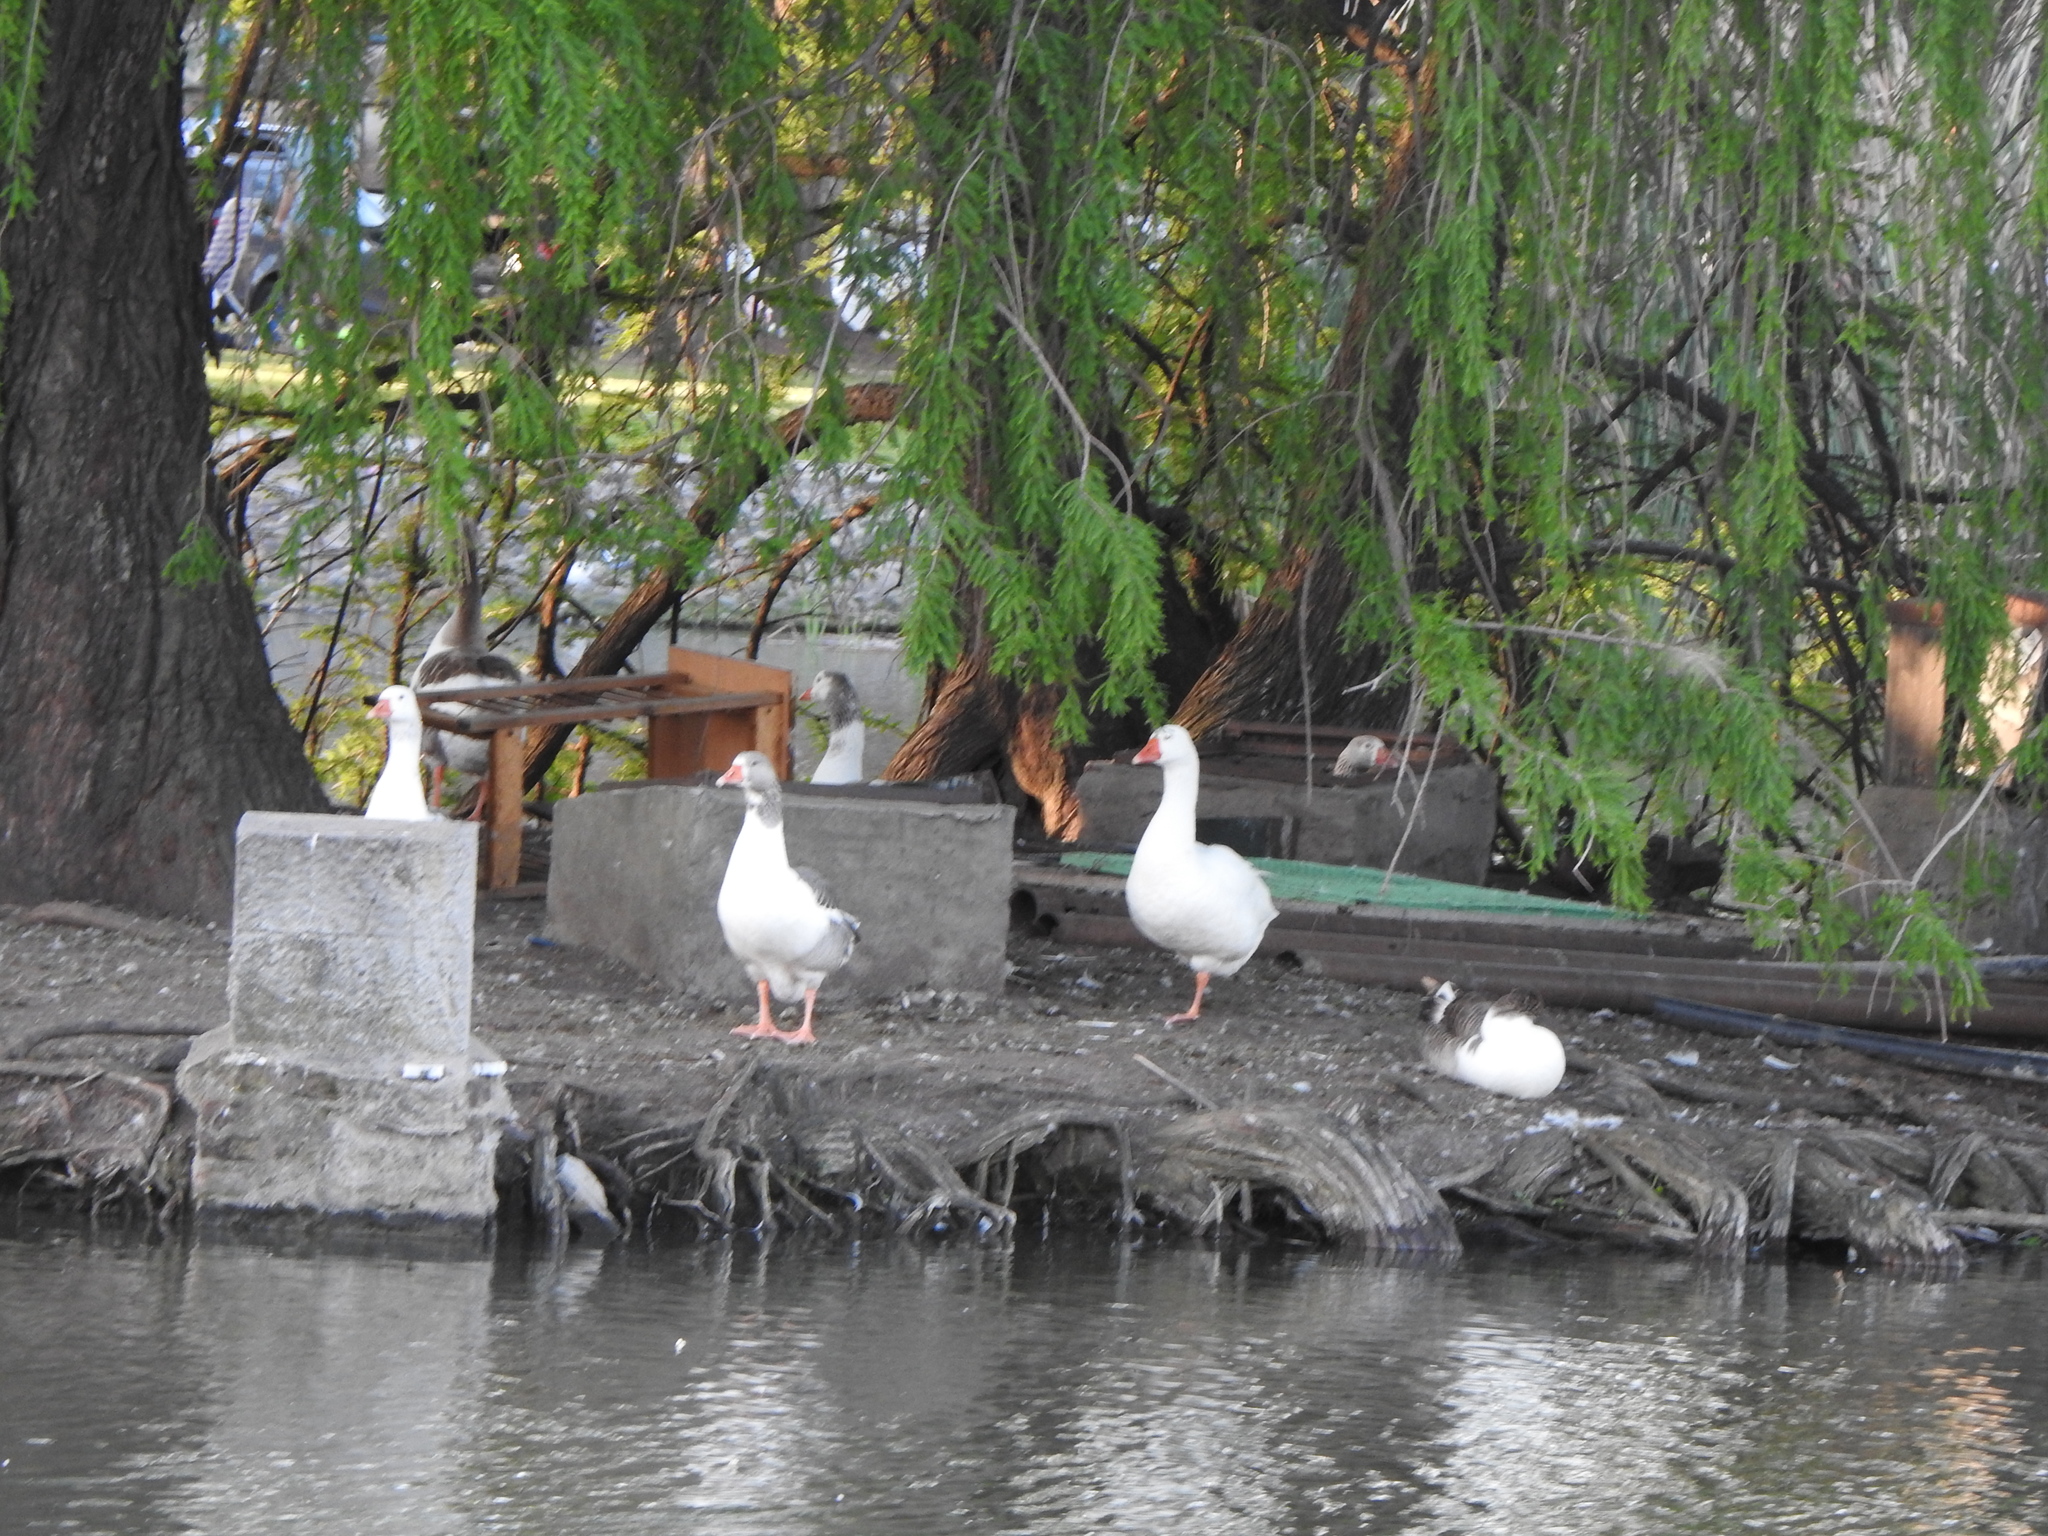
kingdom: Animalia
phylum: Chordata
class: Aves
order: Anseriformes
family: Anatidae
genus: Anser
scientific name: Anser anser
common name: Greylag goose
